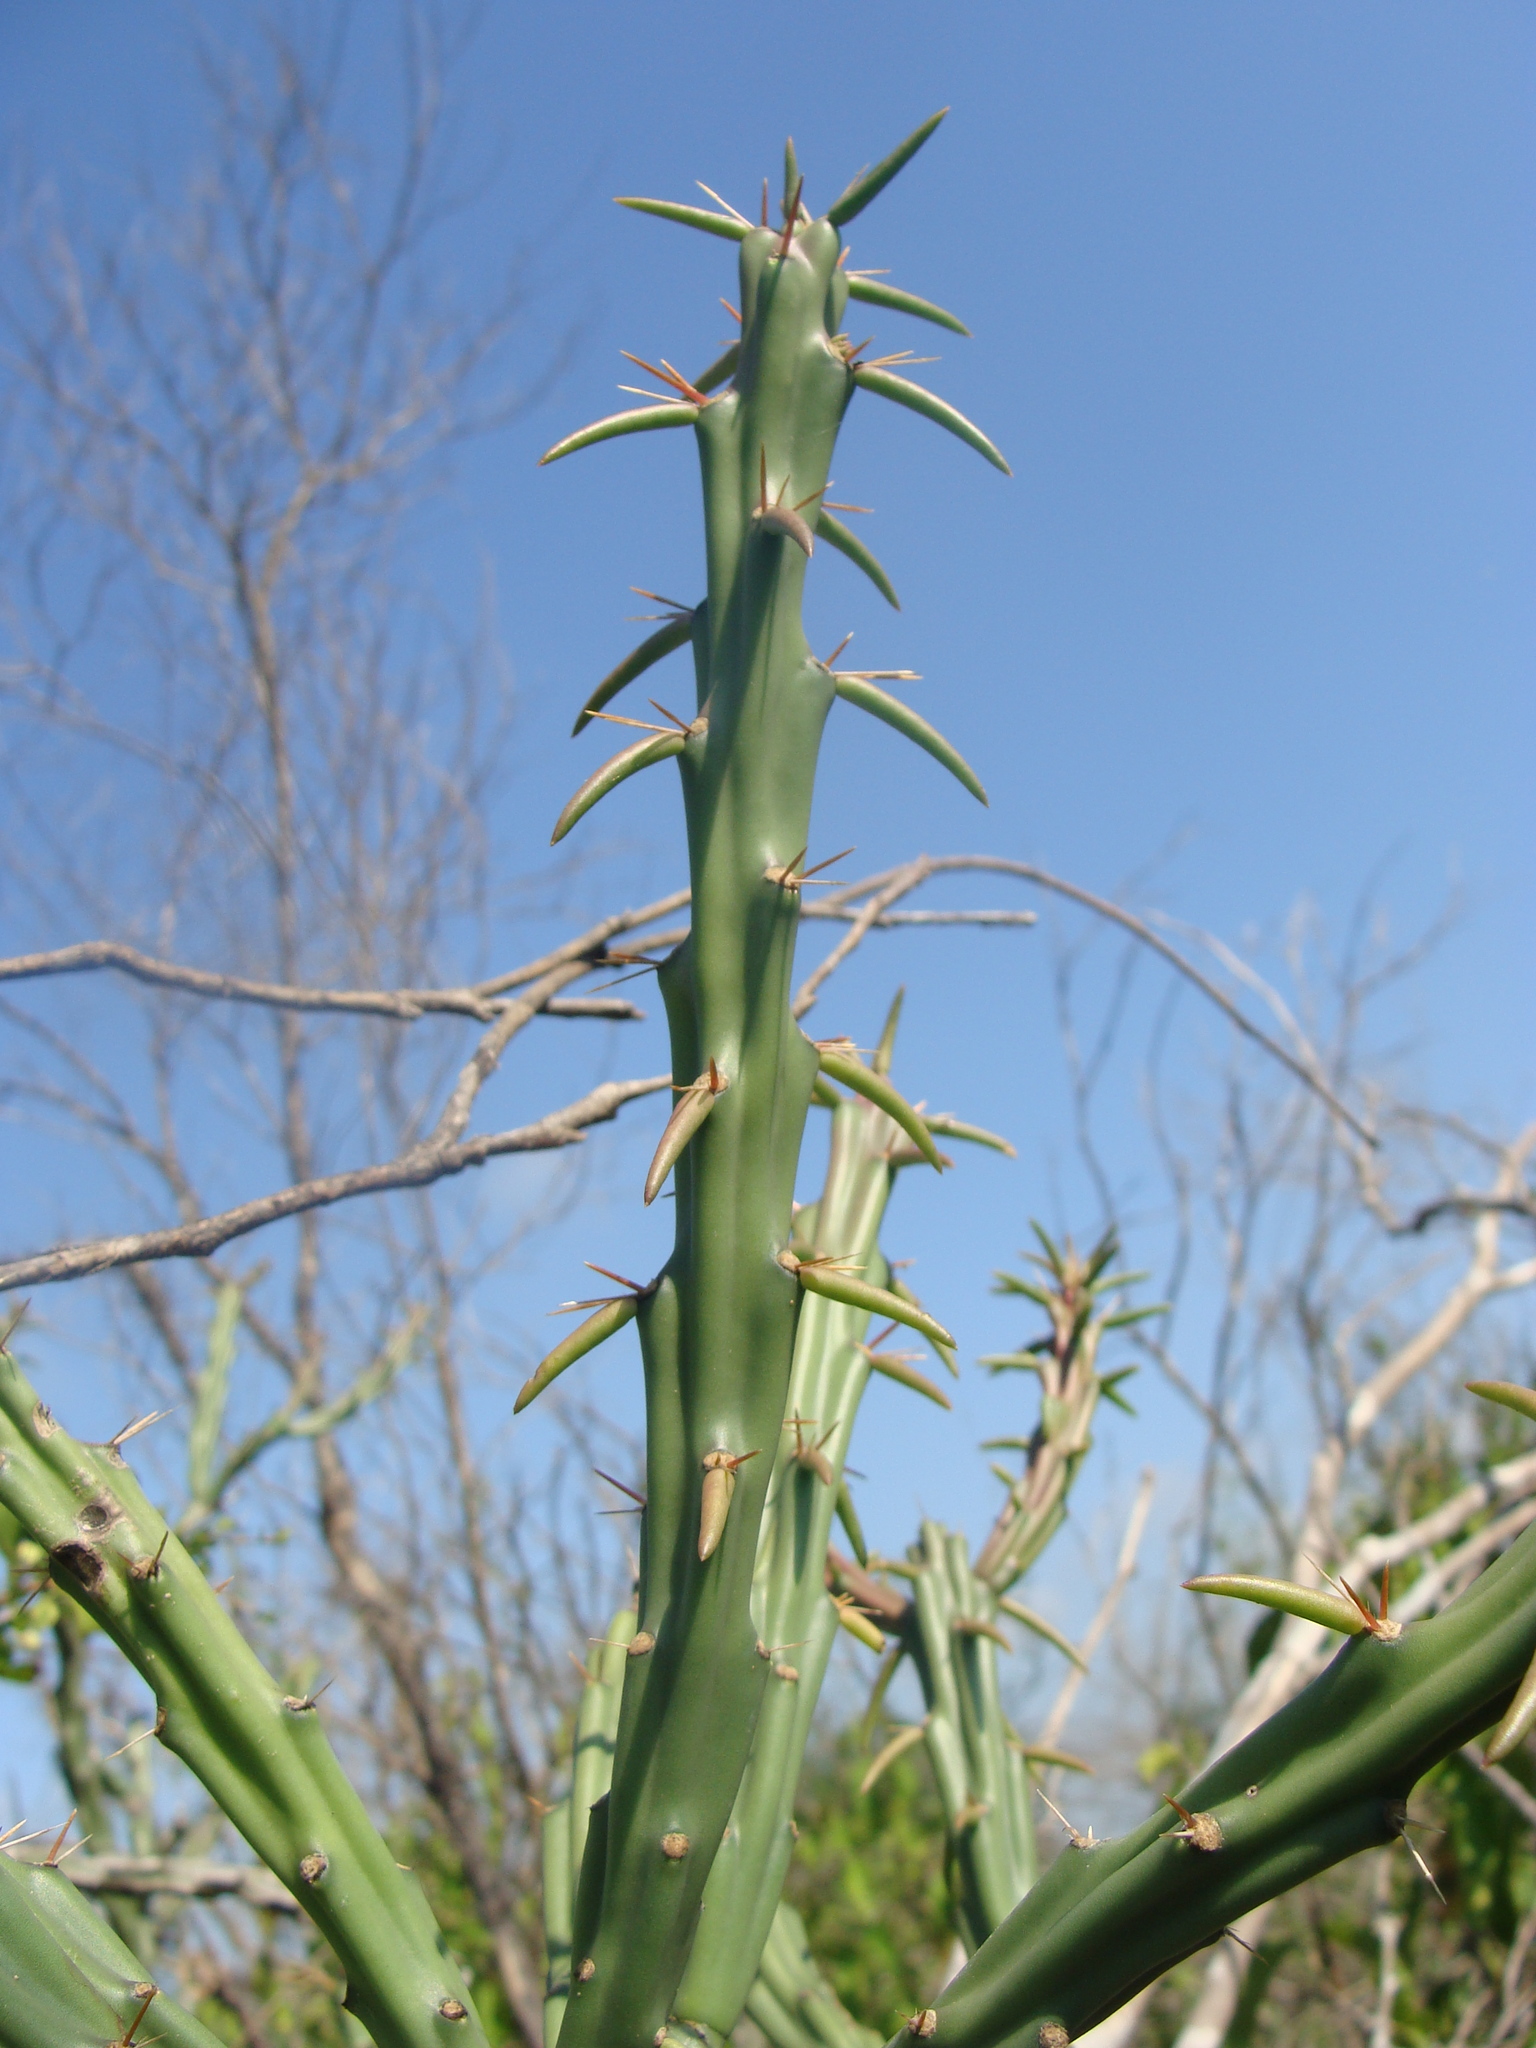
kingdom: Plantae
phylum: Tracheophyta
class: Magnoliopsida
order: Caryophyllales
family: Cactaceae
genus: Cylindropuntia
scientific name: Cylindropuntia thurberi
